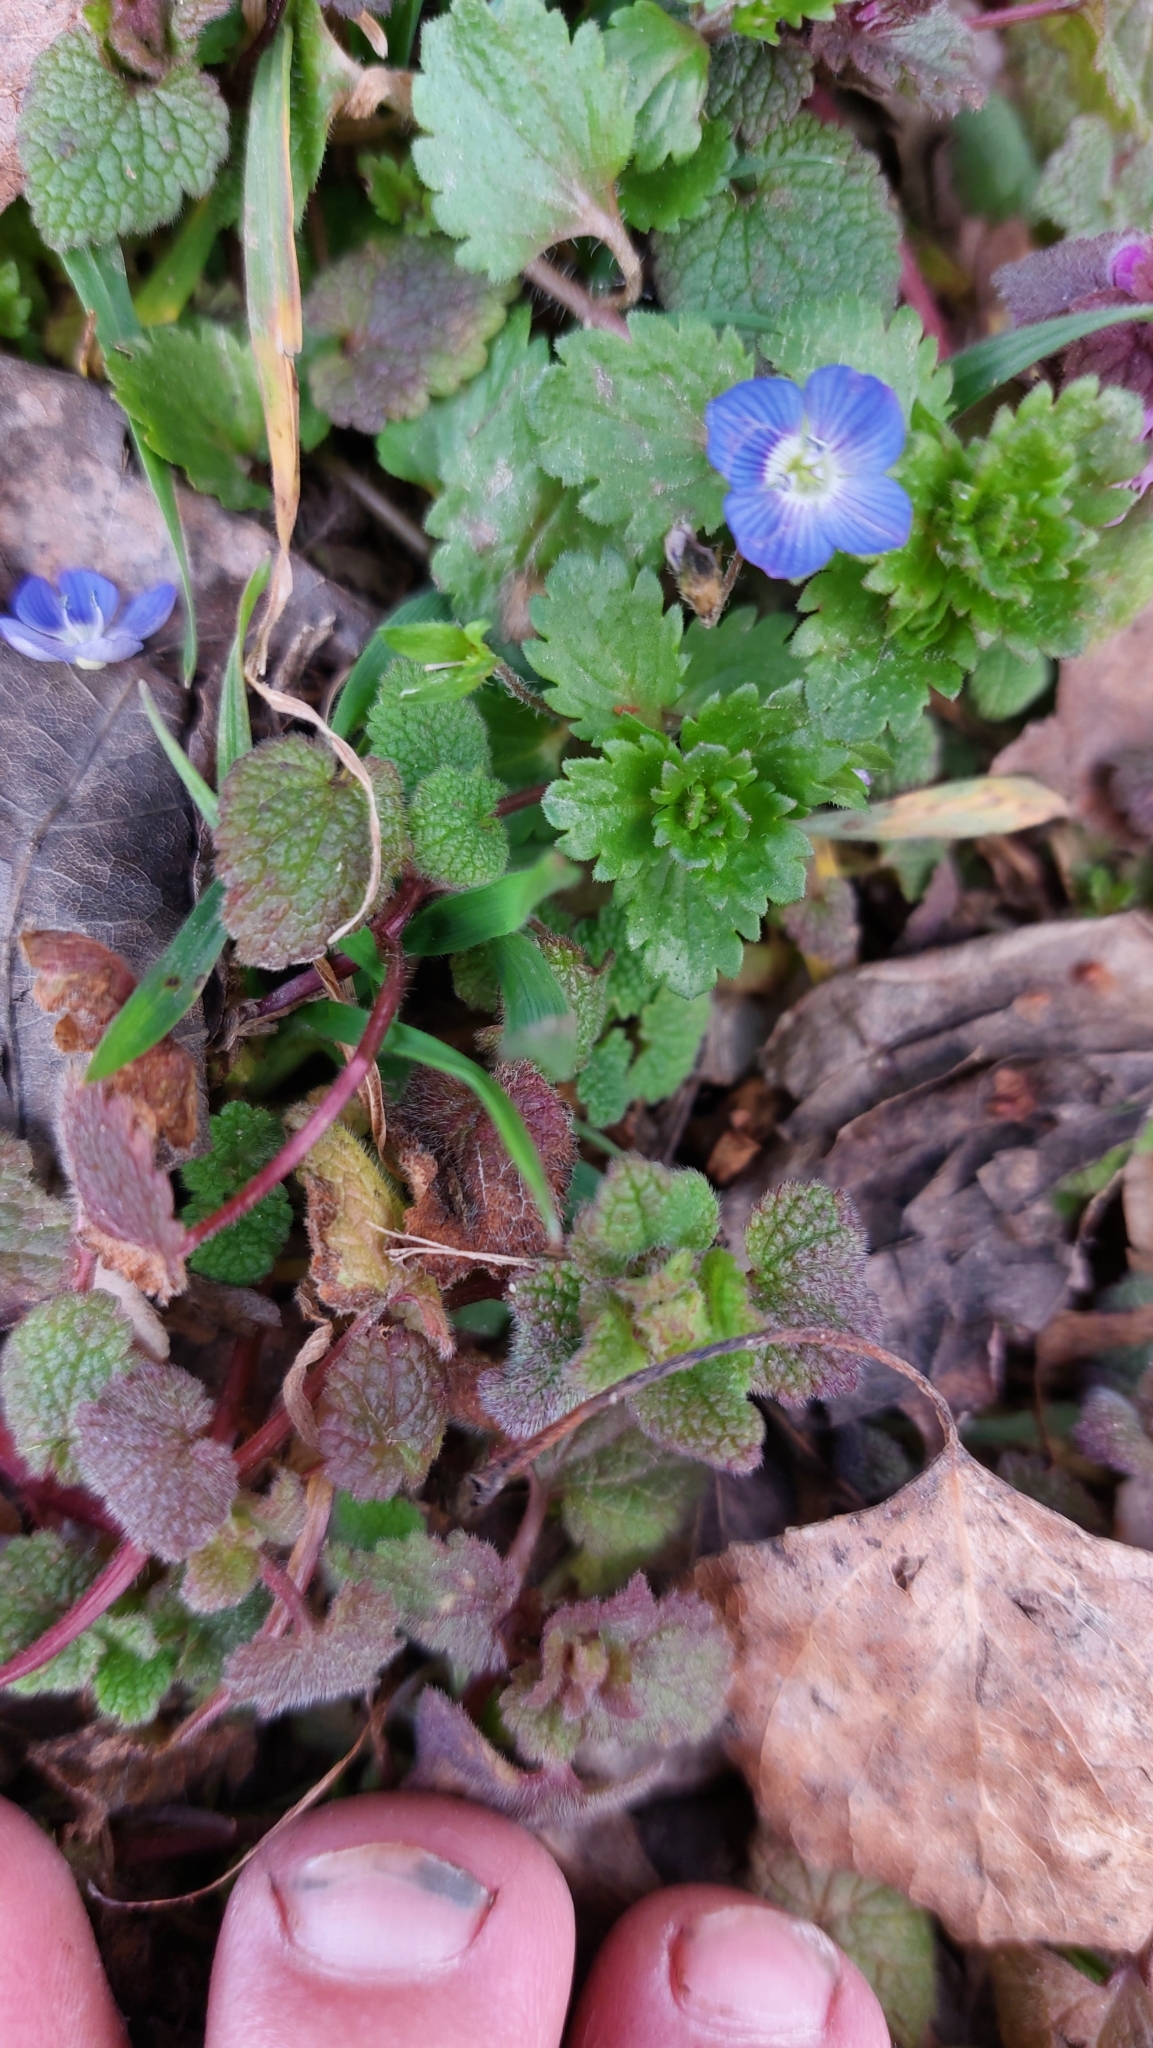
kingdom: Plantae
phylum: Tracheophyta
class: Magnoliopsida
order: Lamiales
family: Plantaginaceae
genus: Veronica
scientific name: Veronica persica
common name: Common field-speedwell
